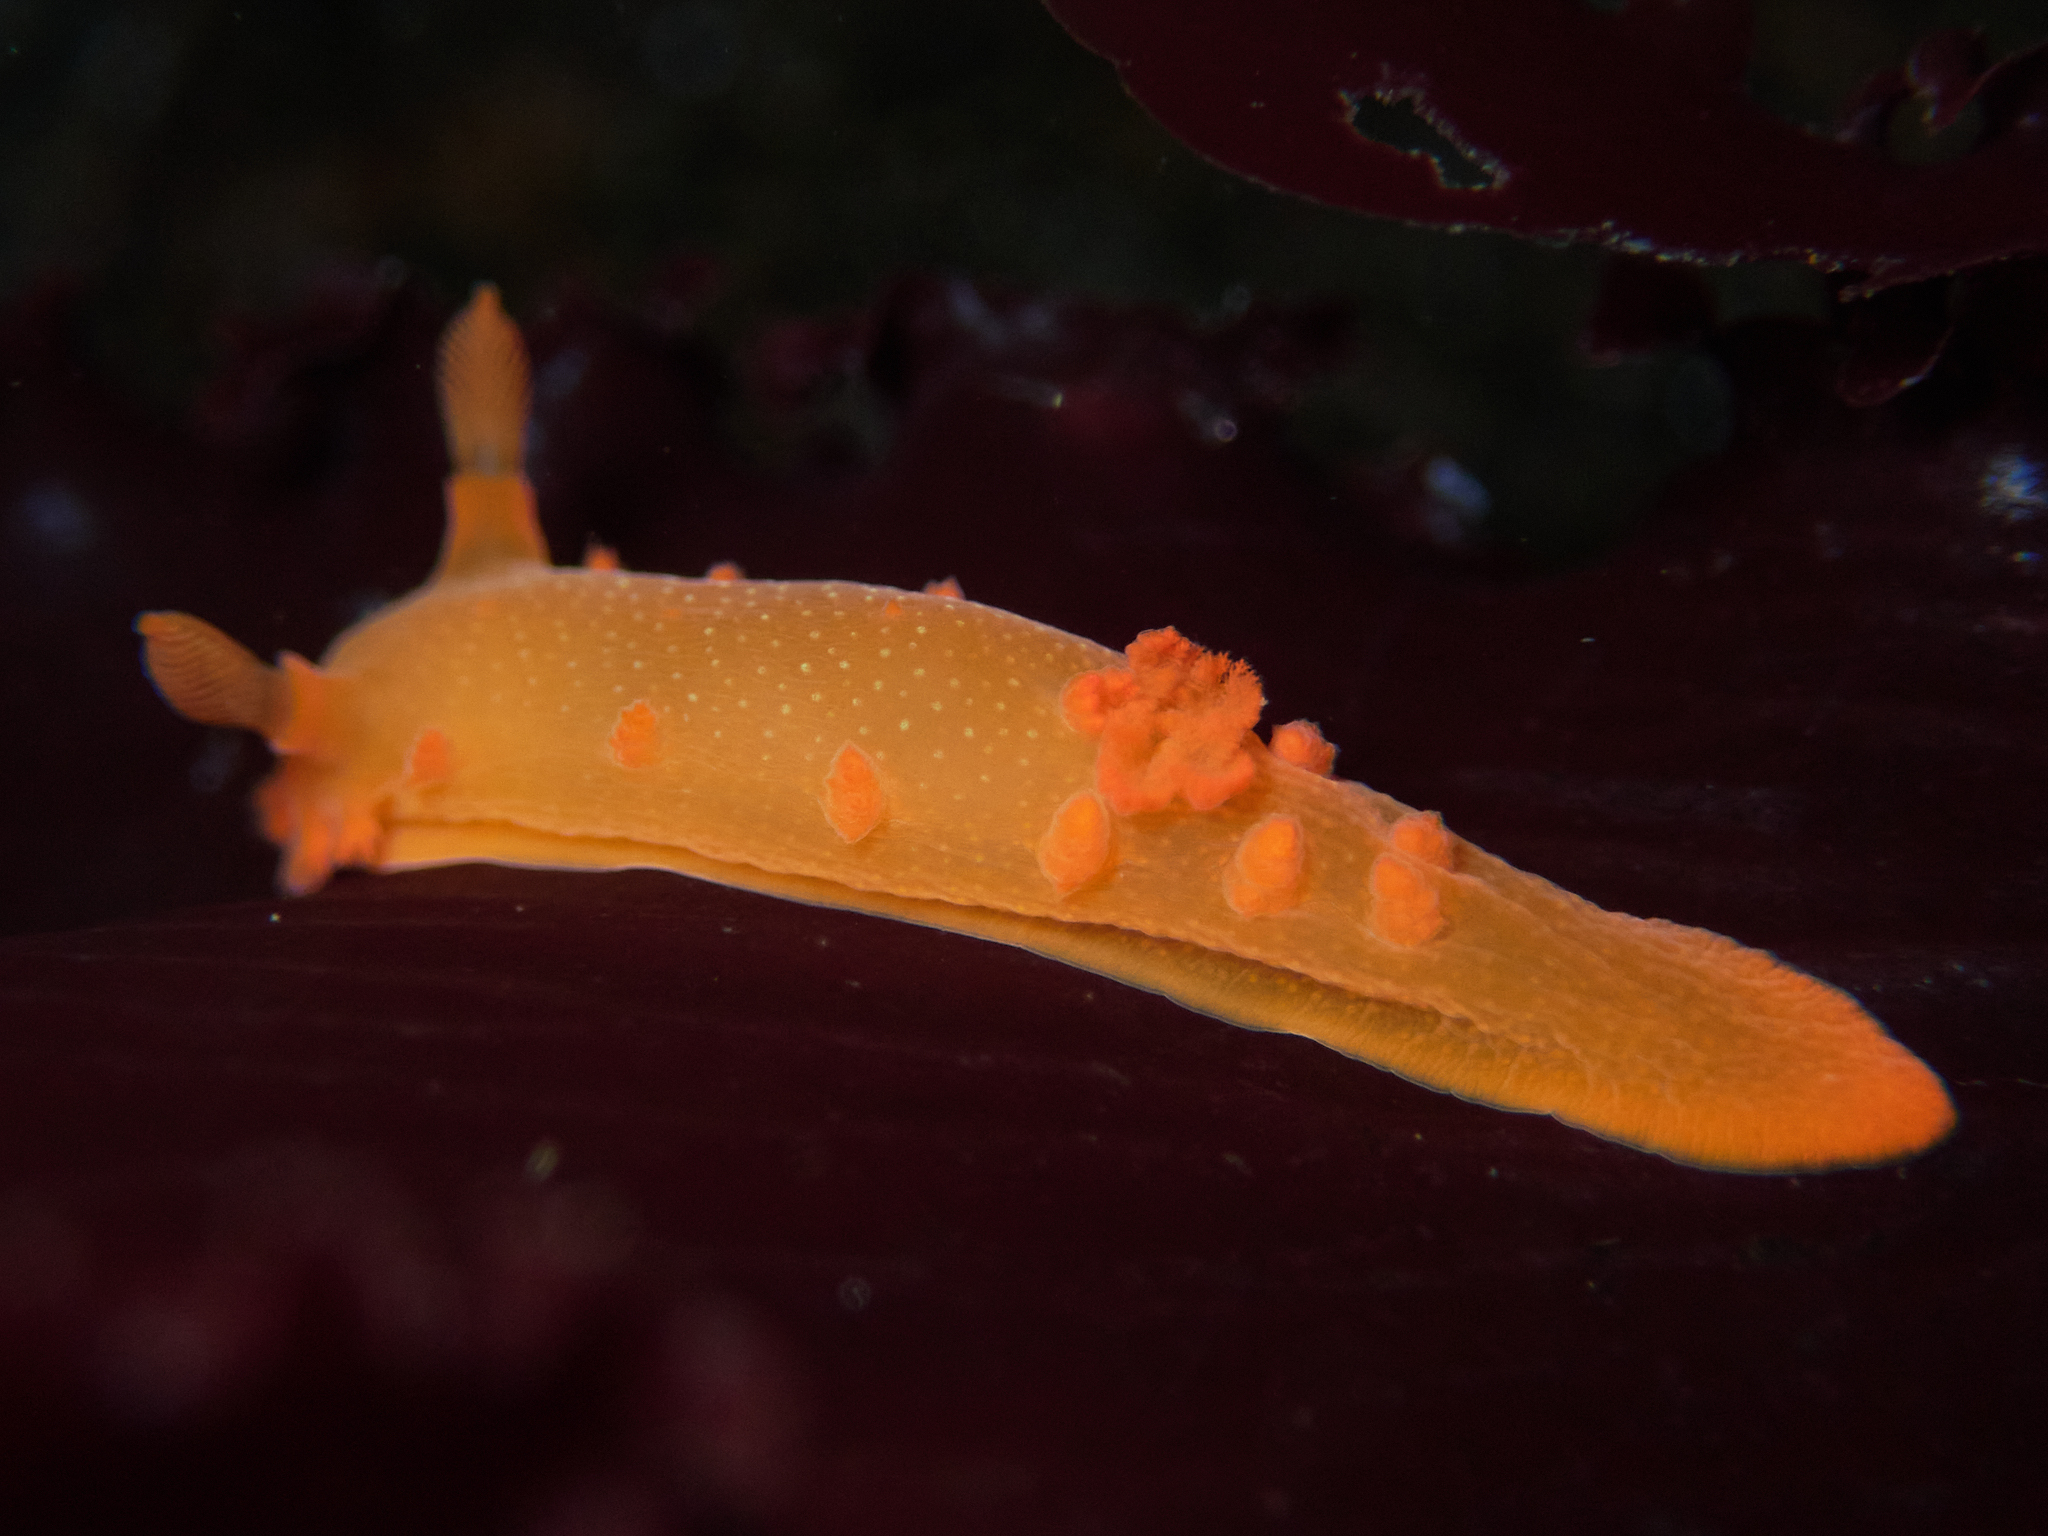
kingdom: Animalia
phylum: Mollusca
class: Gastropoda
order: Nudibranchia
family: Polyceridae
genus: Triopha
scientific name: Triopha maculata
